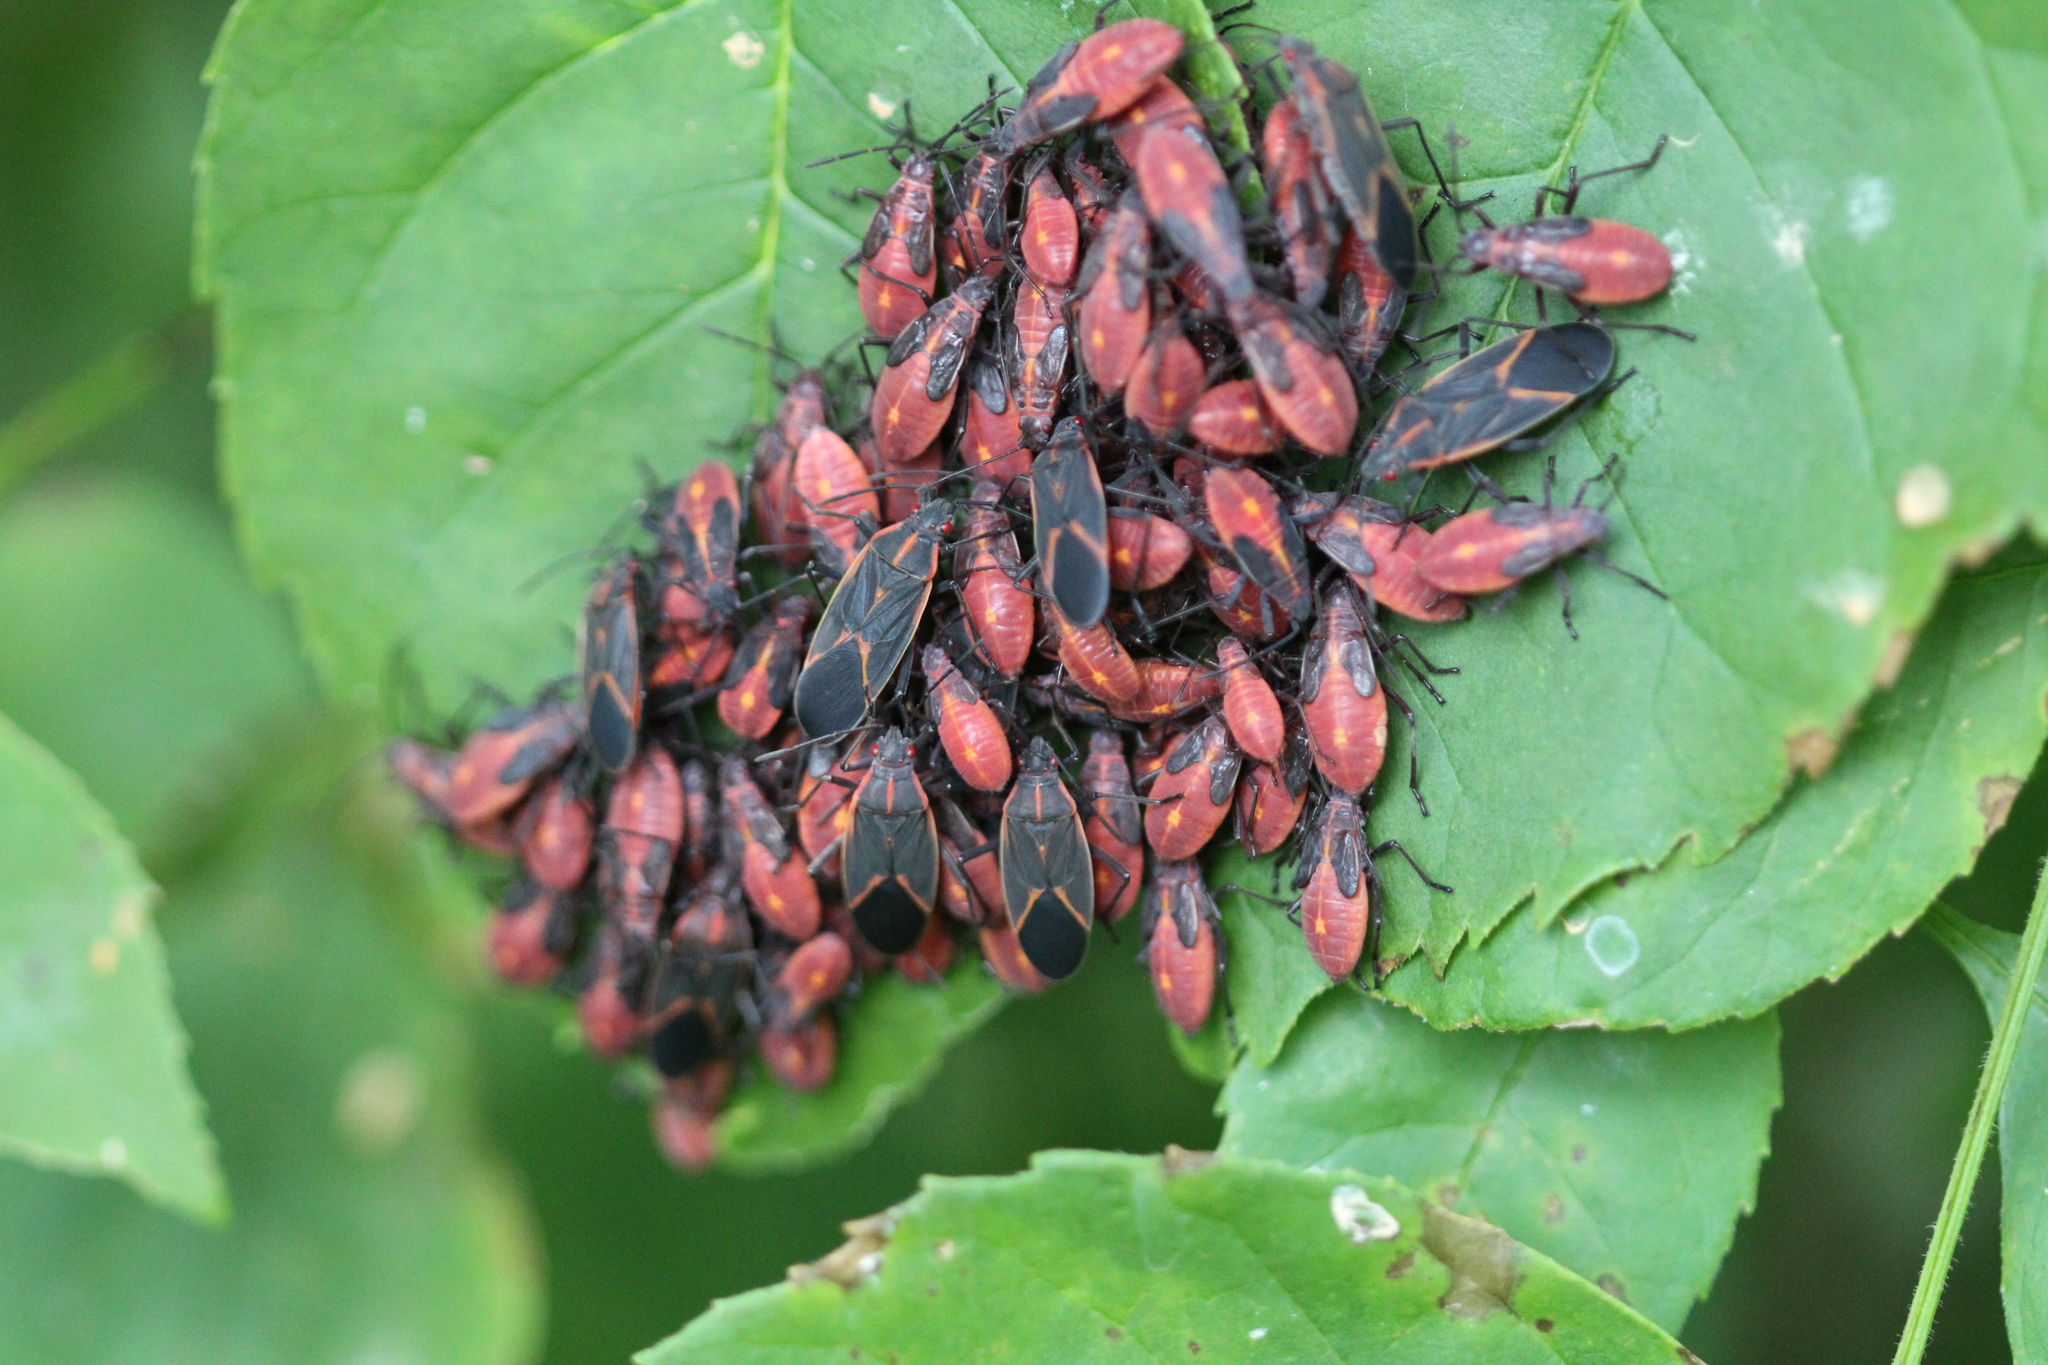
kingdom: Animalia
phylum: Arthropoda
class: Insecta
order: Hemiptera
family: Rhopalidae
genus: Boisea
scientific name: Boisea trivittata
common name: Boxelder bug
